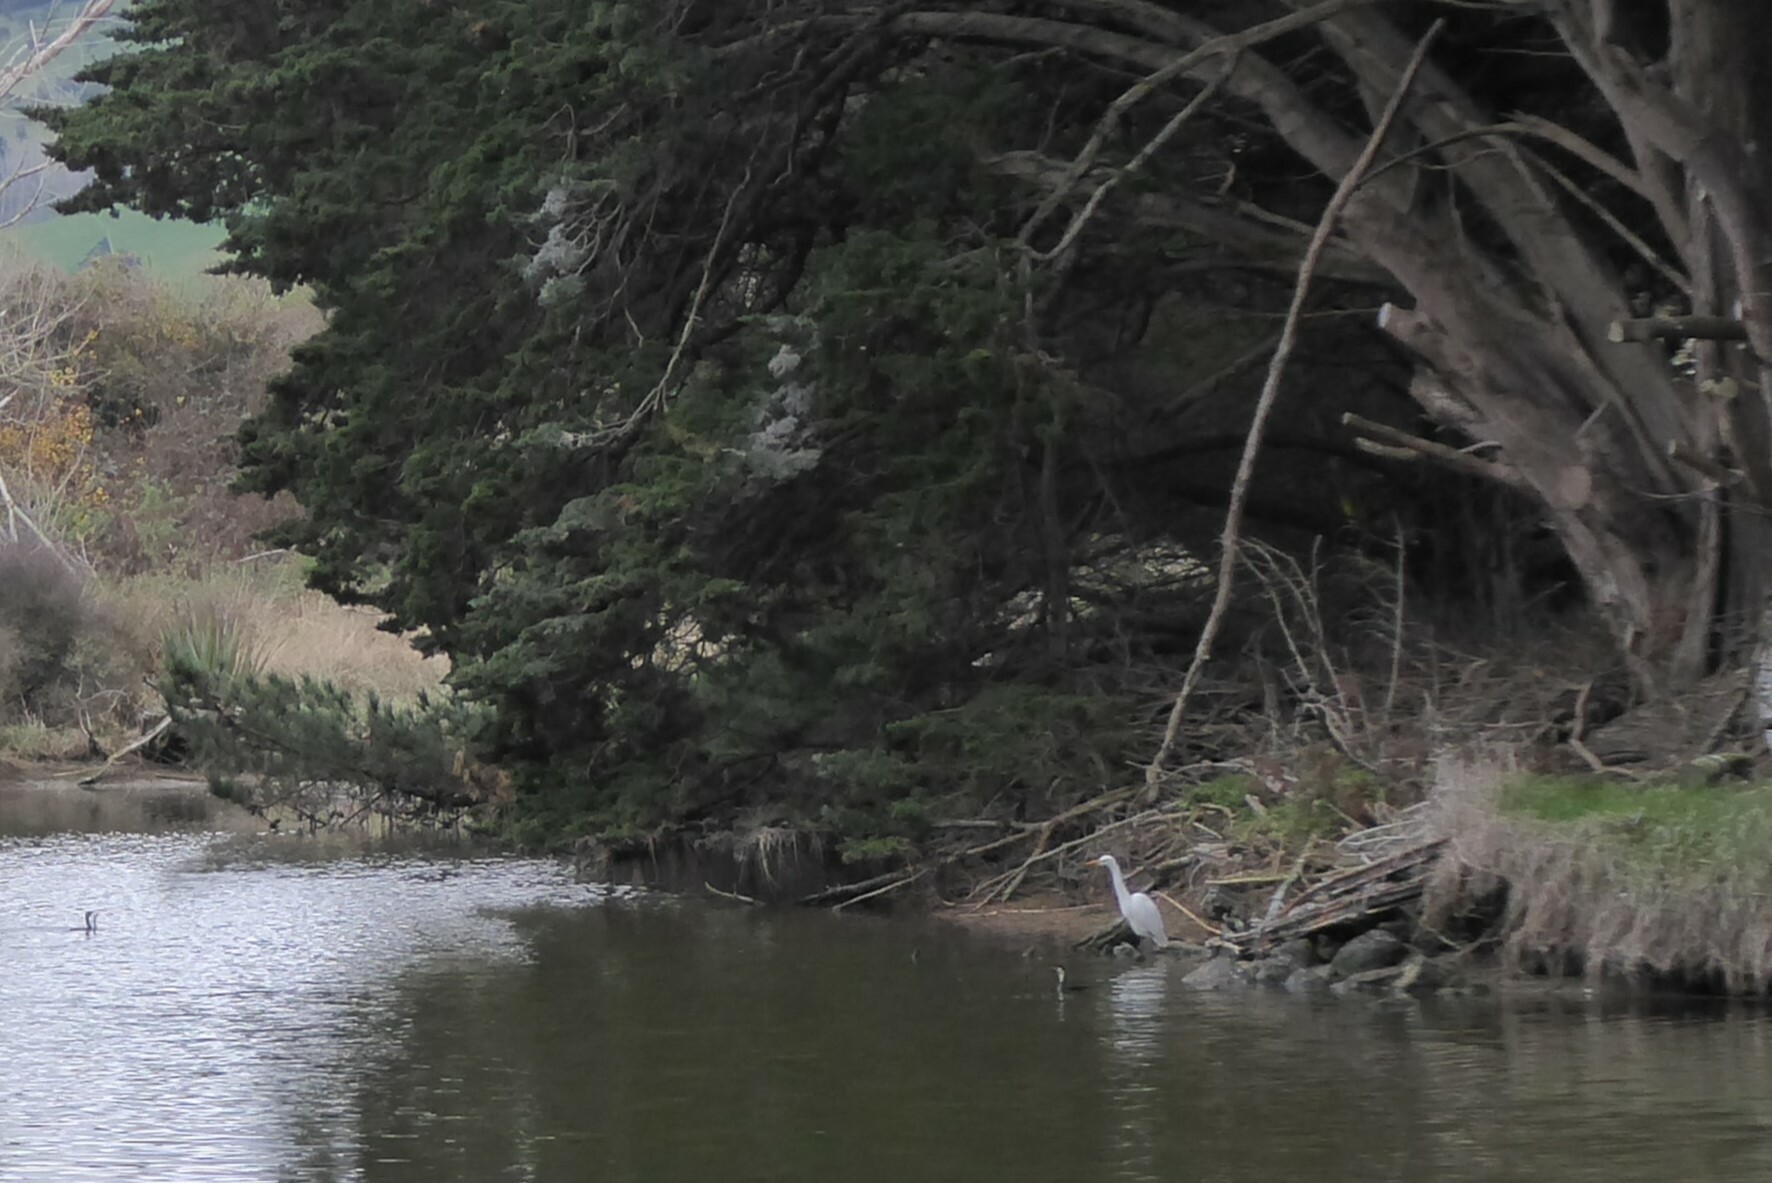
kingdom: Animalia
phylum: Chordata
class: Aves
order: Pelecaniformes
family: Ardeidae
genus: Ardea
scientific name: Ardea modesta
